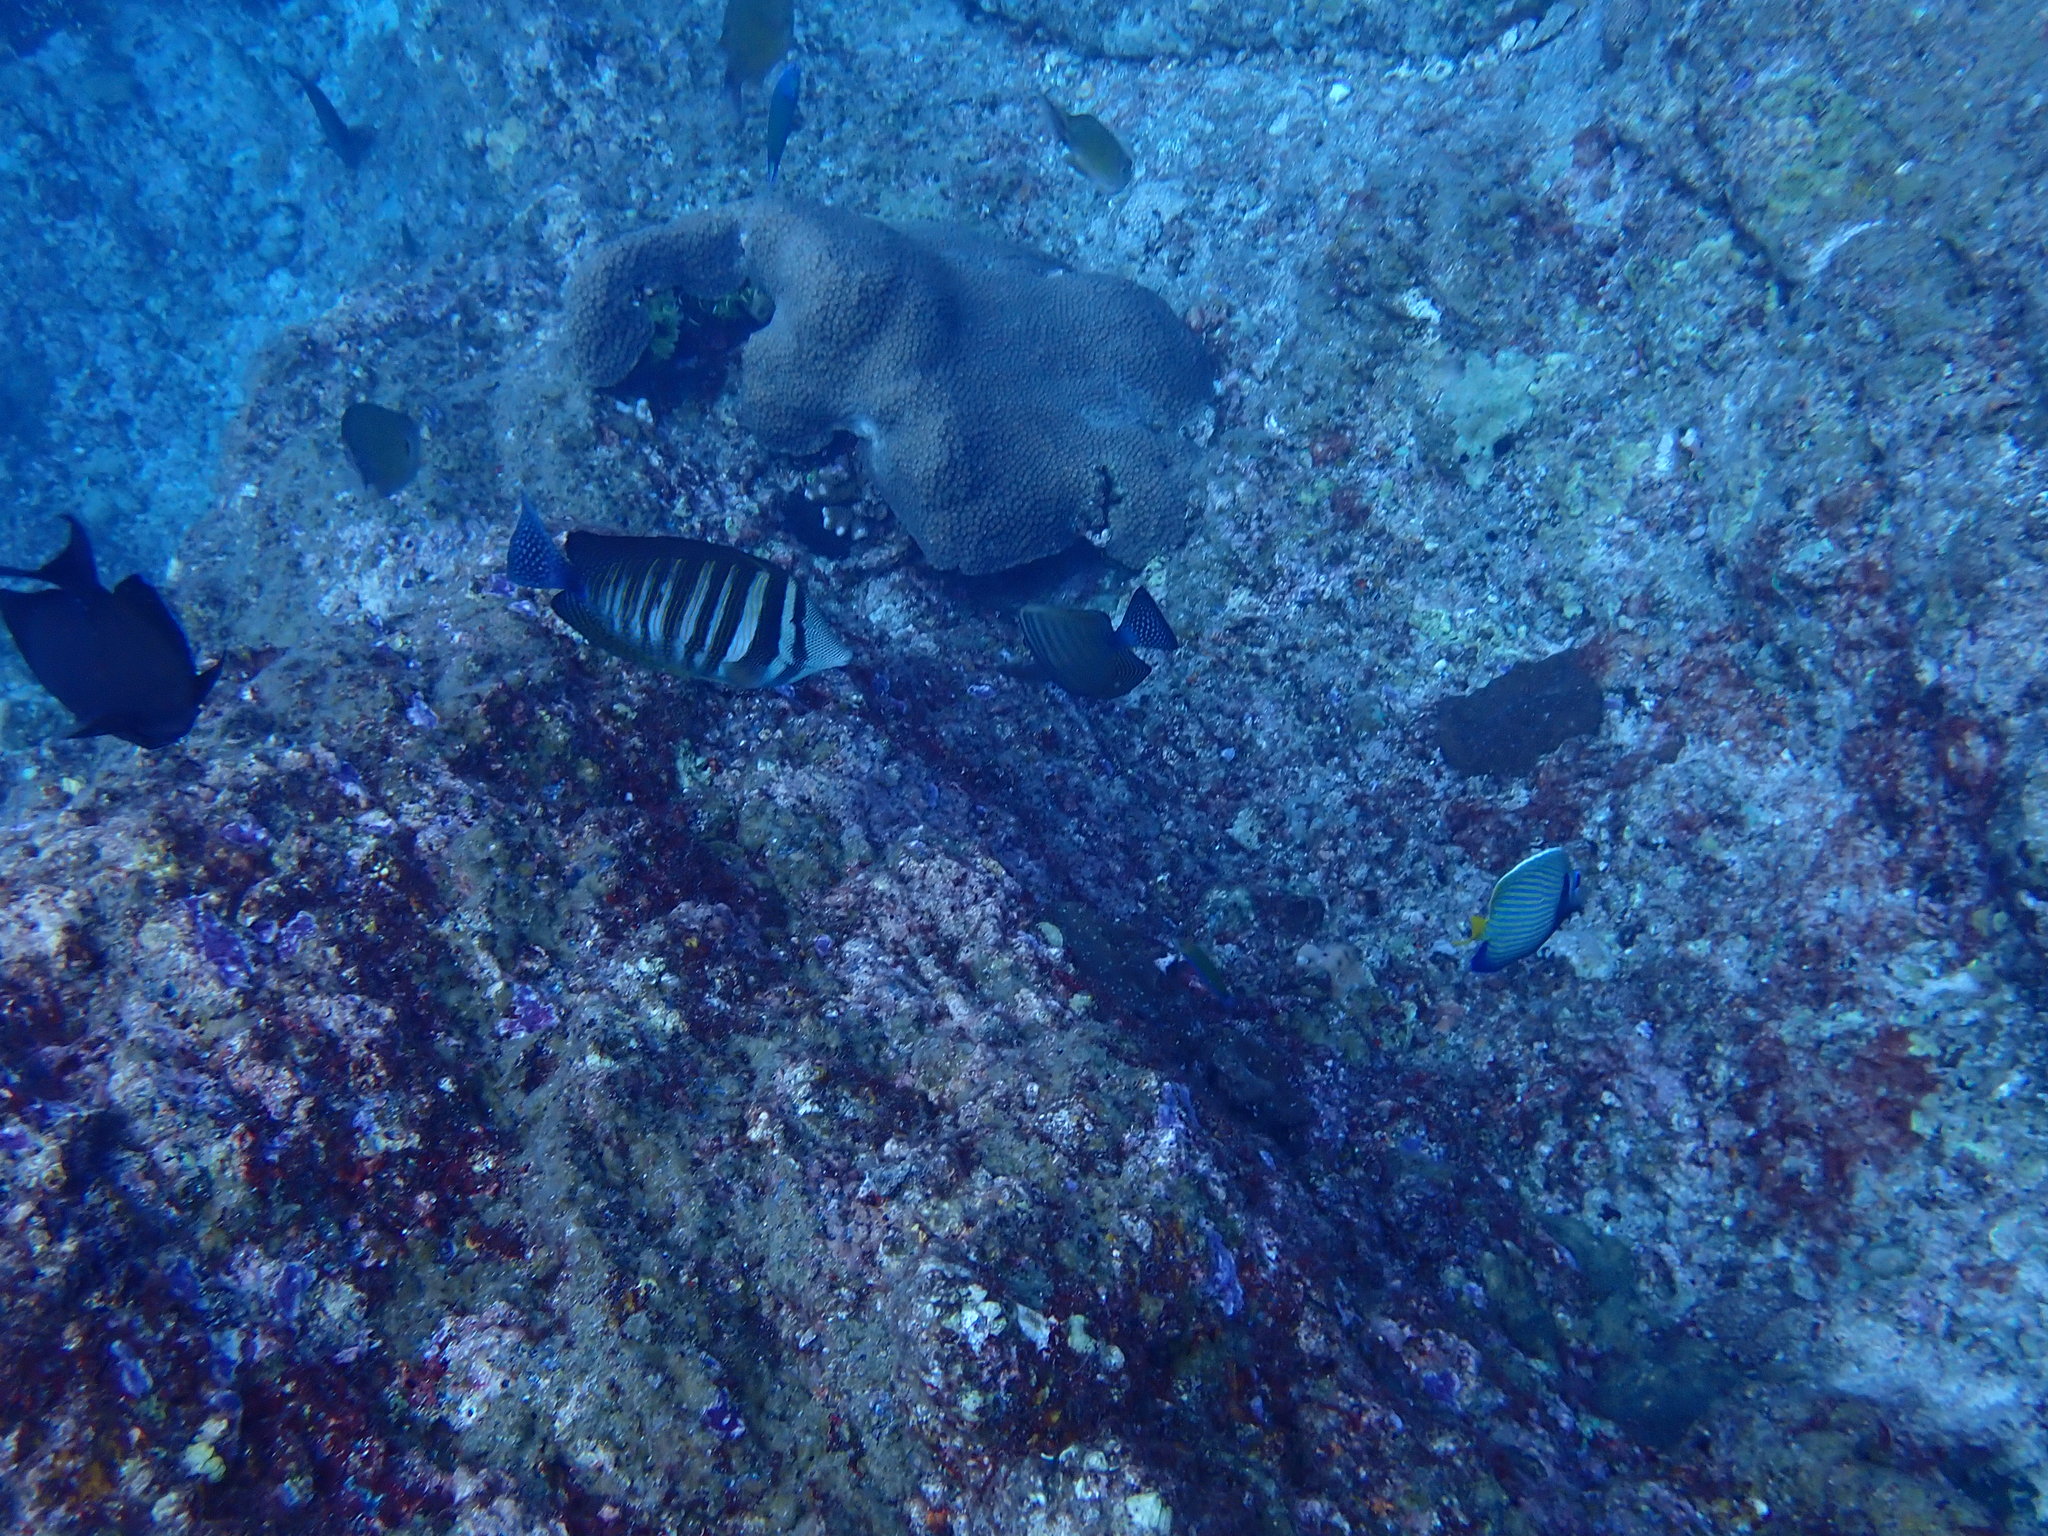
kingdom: Animalia
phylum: Chordata
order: Perciformes
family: Acanthuridae
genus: Zebrasoma
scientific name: Zebrasoma desjardinii
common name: Desjardin's sailfin tang
